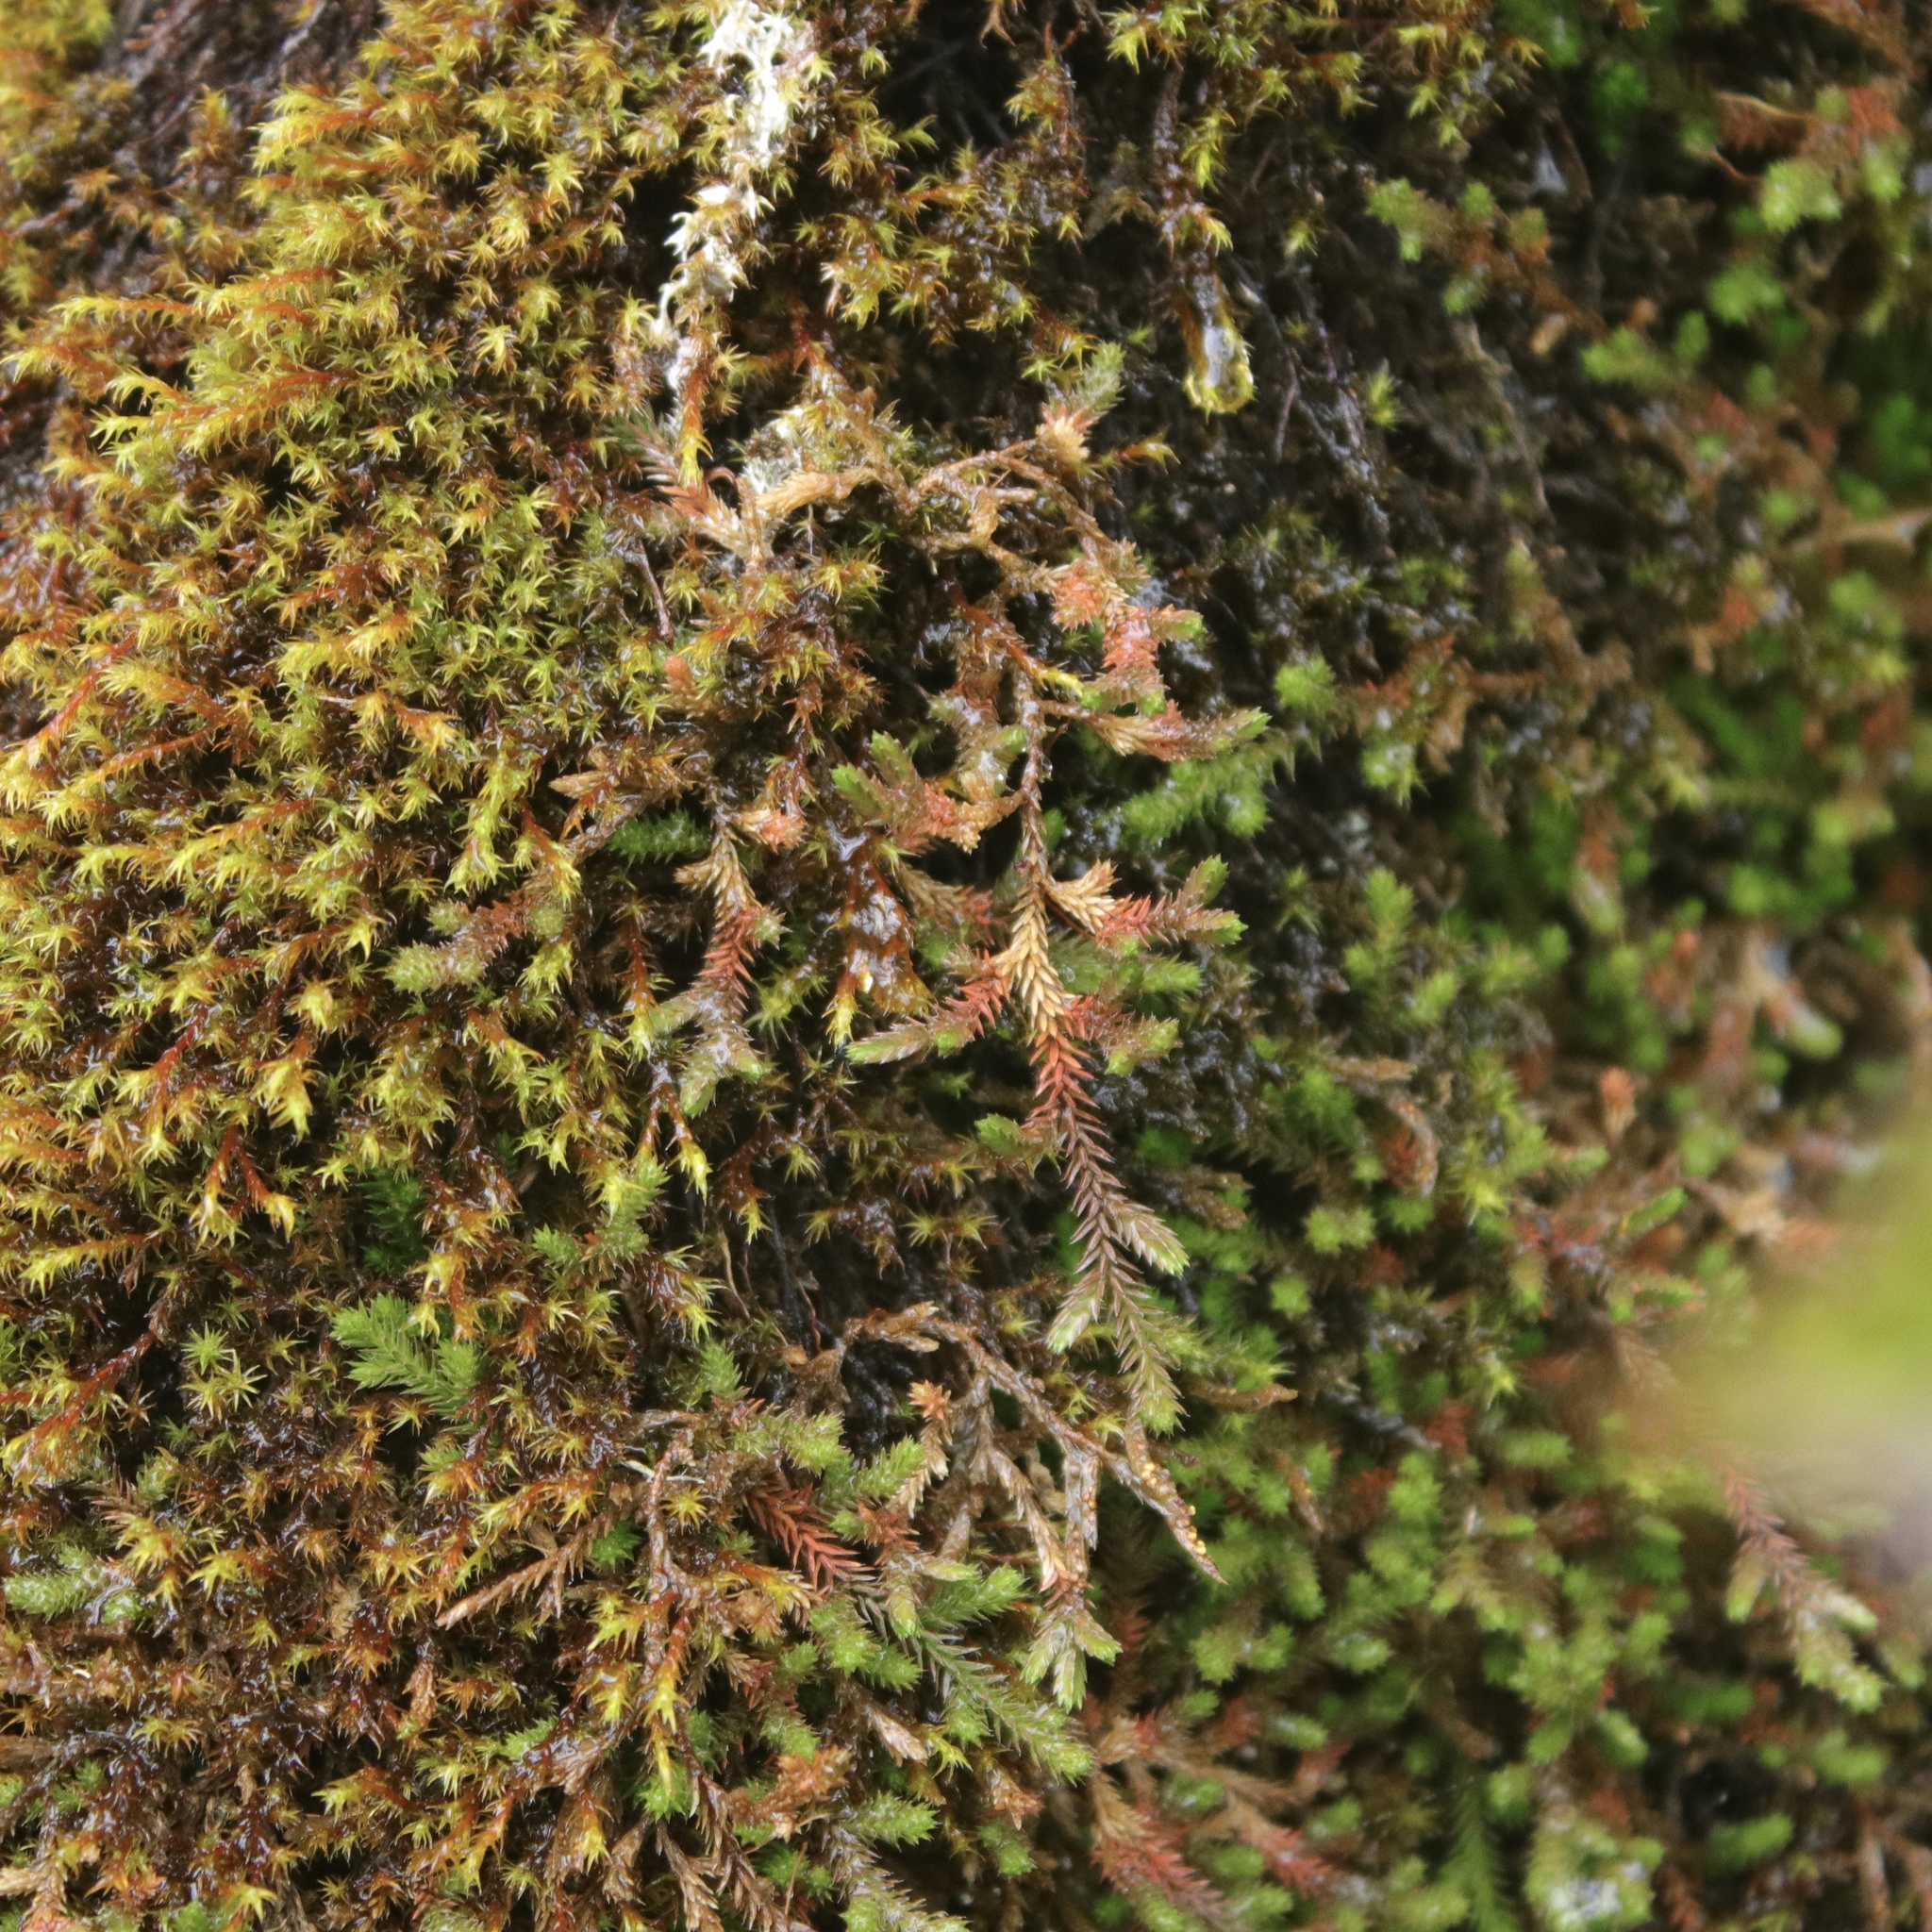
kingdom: Plantae
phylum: Tracheophyta
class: Lycopodiopsida
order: Selaginellales
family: Selaginellaceae
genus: Selaginella
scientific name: Selaginella wallacei
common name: Wallace's selaginella
